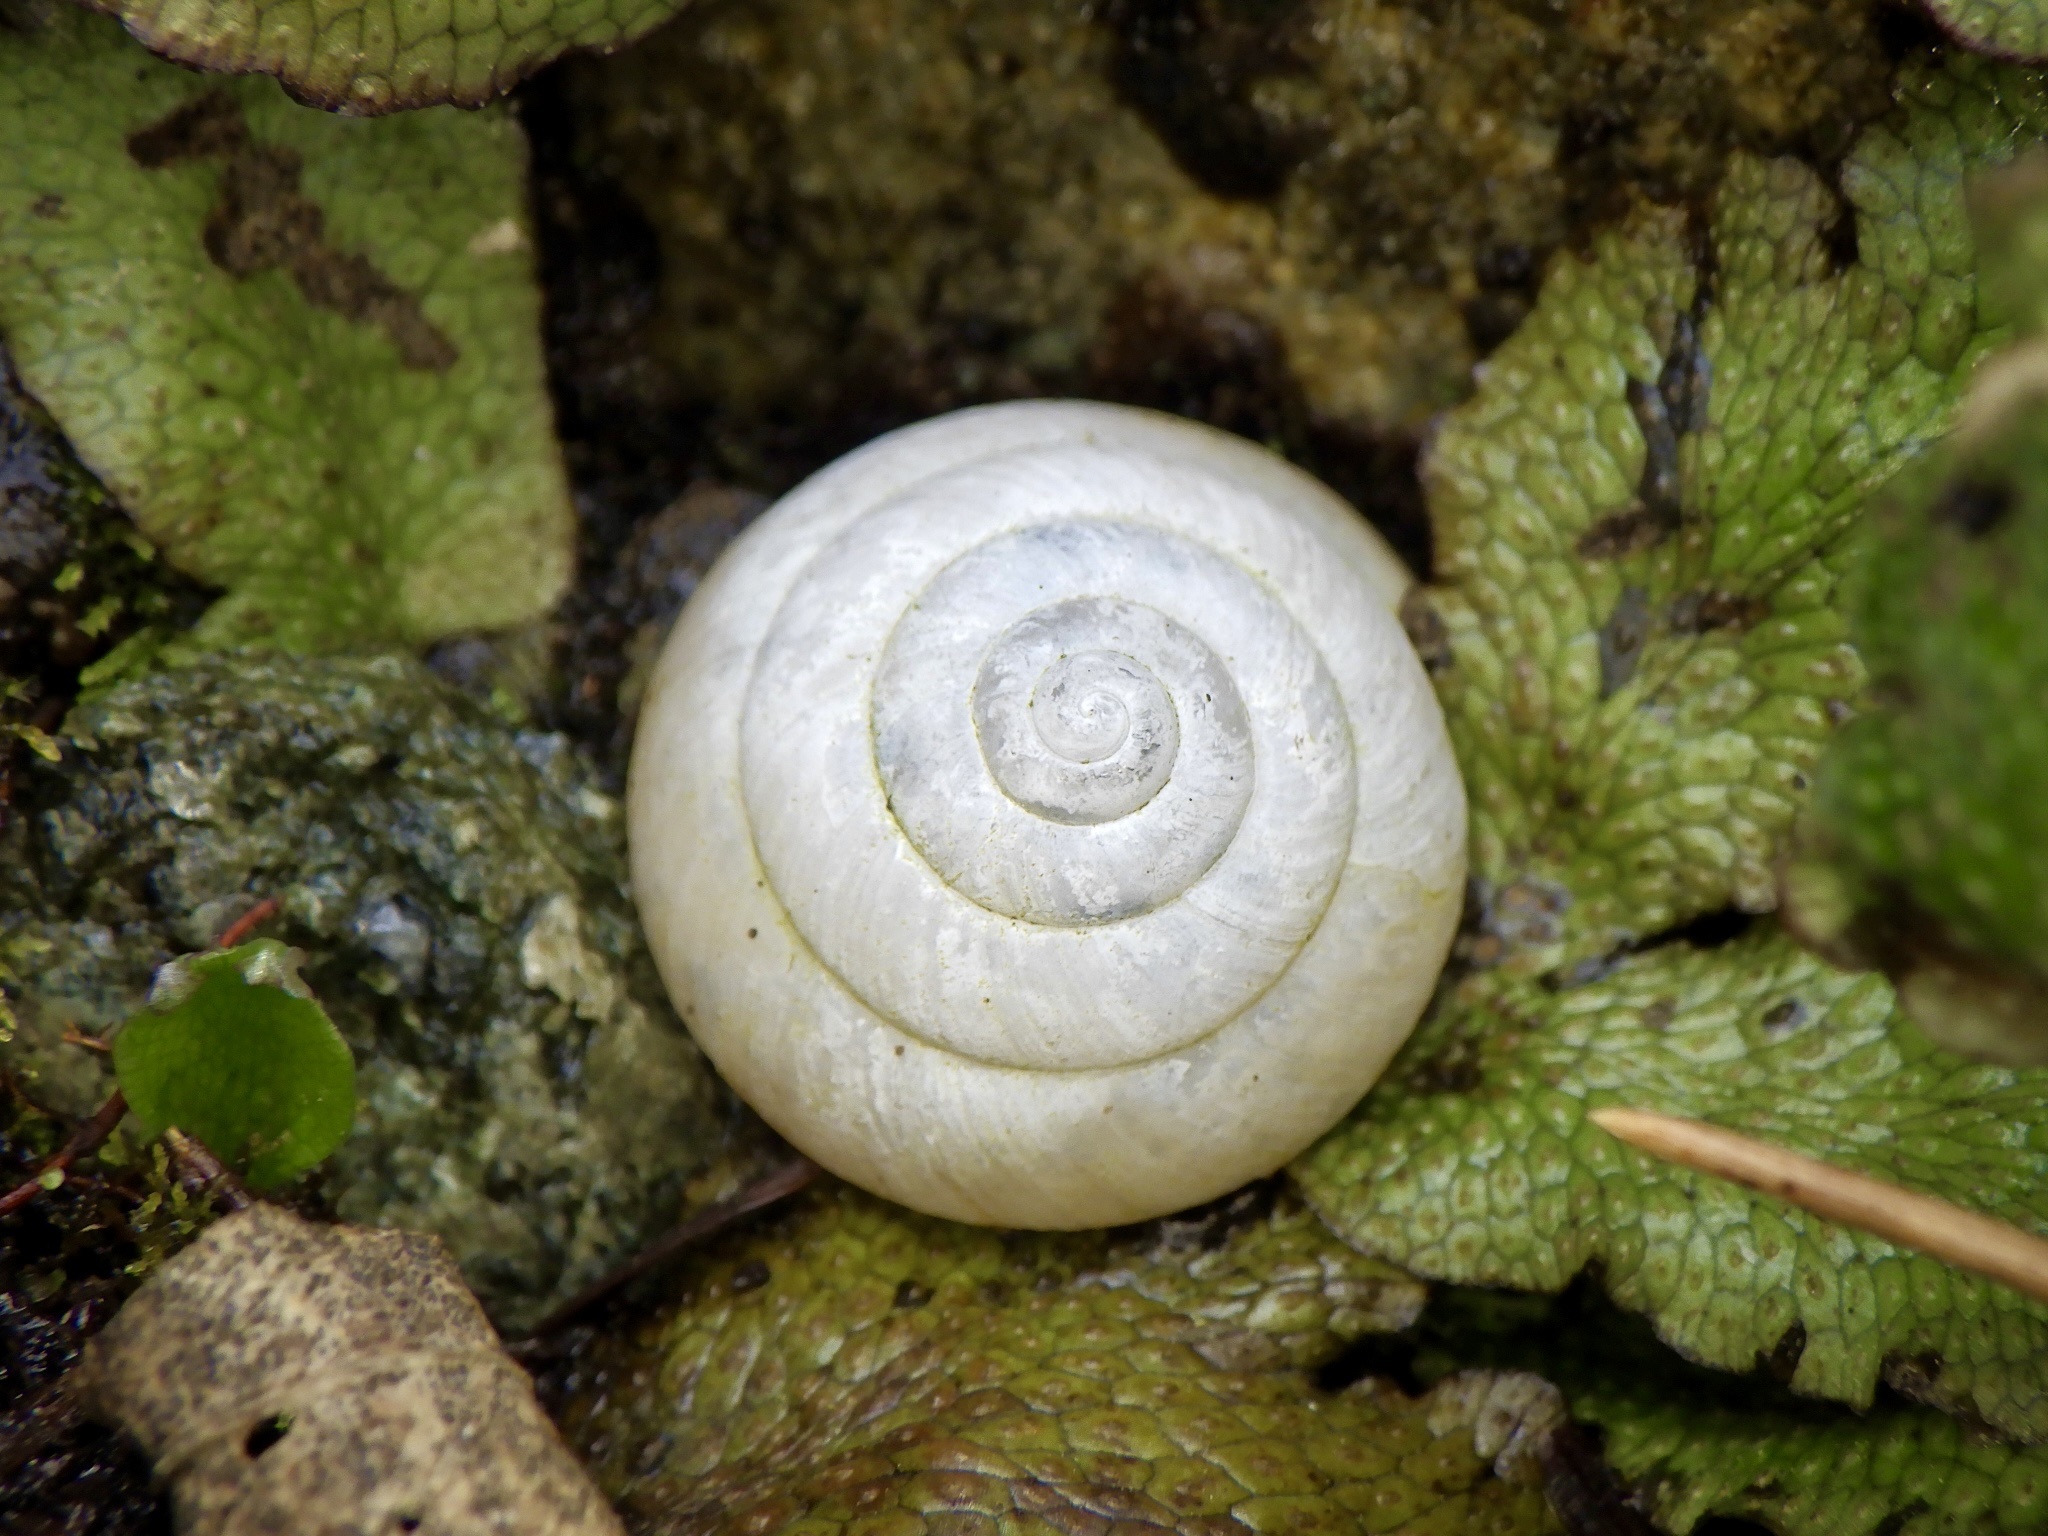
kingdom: Animalia
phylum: Mollusca
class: Gastropoda
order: Stylommatophora
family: Camaenidae
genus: Satsuma
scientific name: Satsuma japonica
